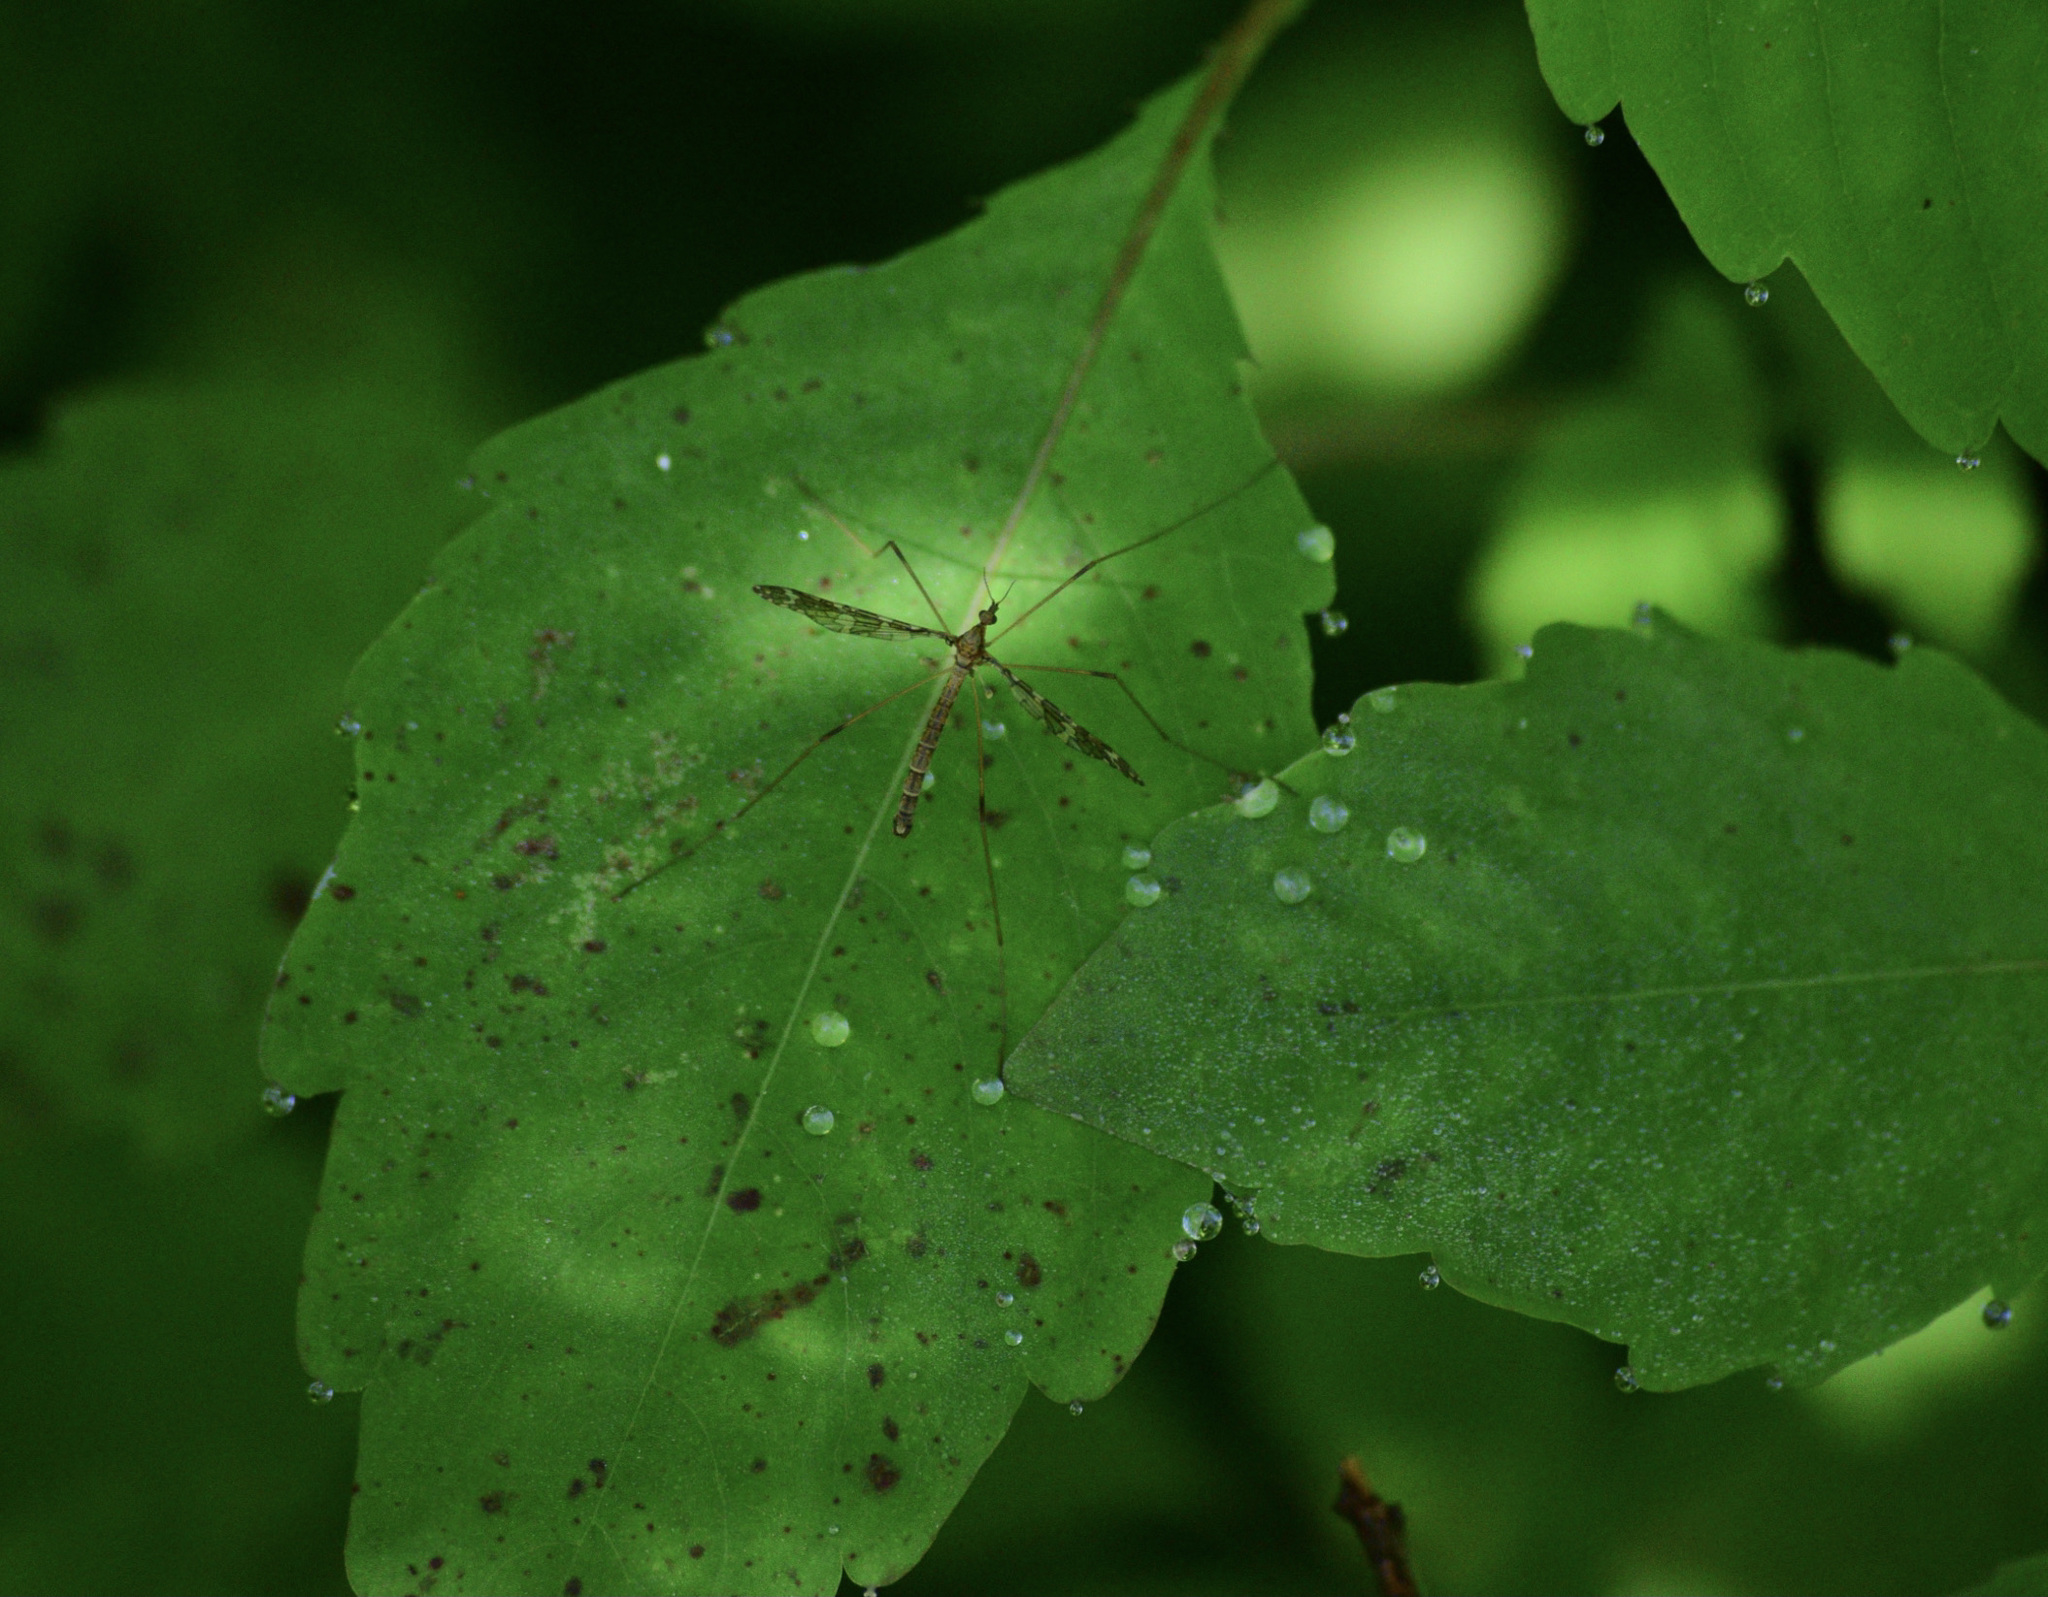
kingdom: Animalia
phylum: Arthropoda
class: Insecta
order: Diptera
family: Limoniidae
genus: Epiphragma
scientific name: Epiphragma fasciapenne
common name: Band-winged crane fly
